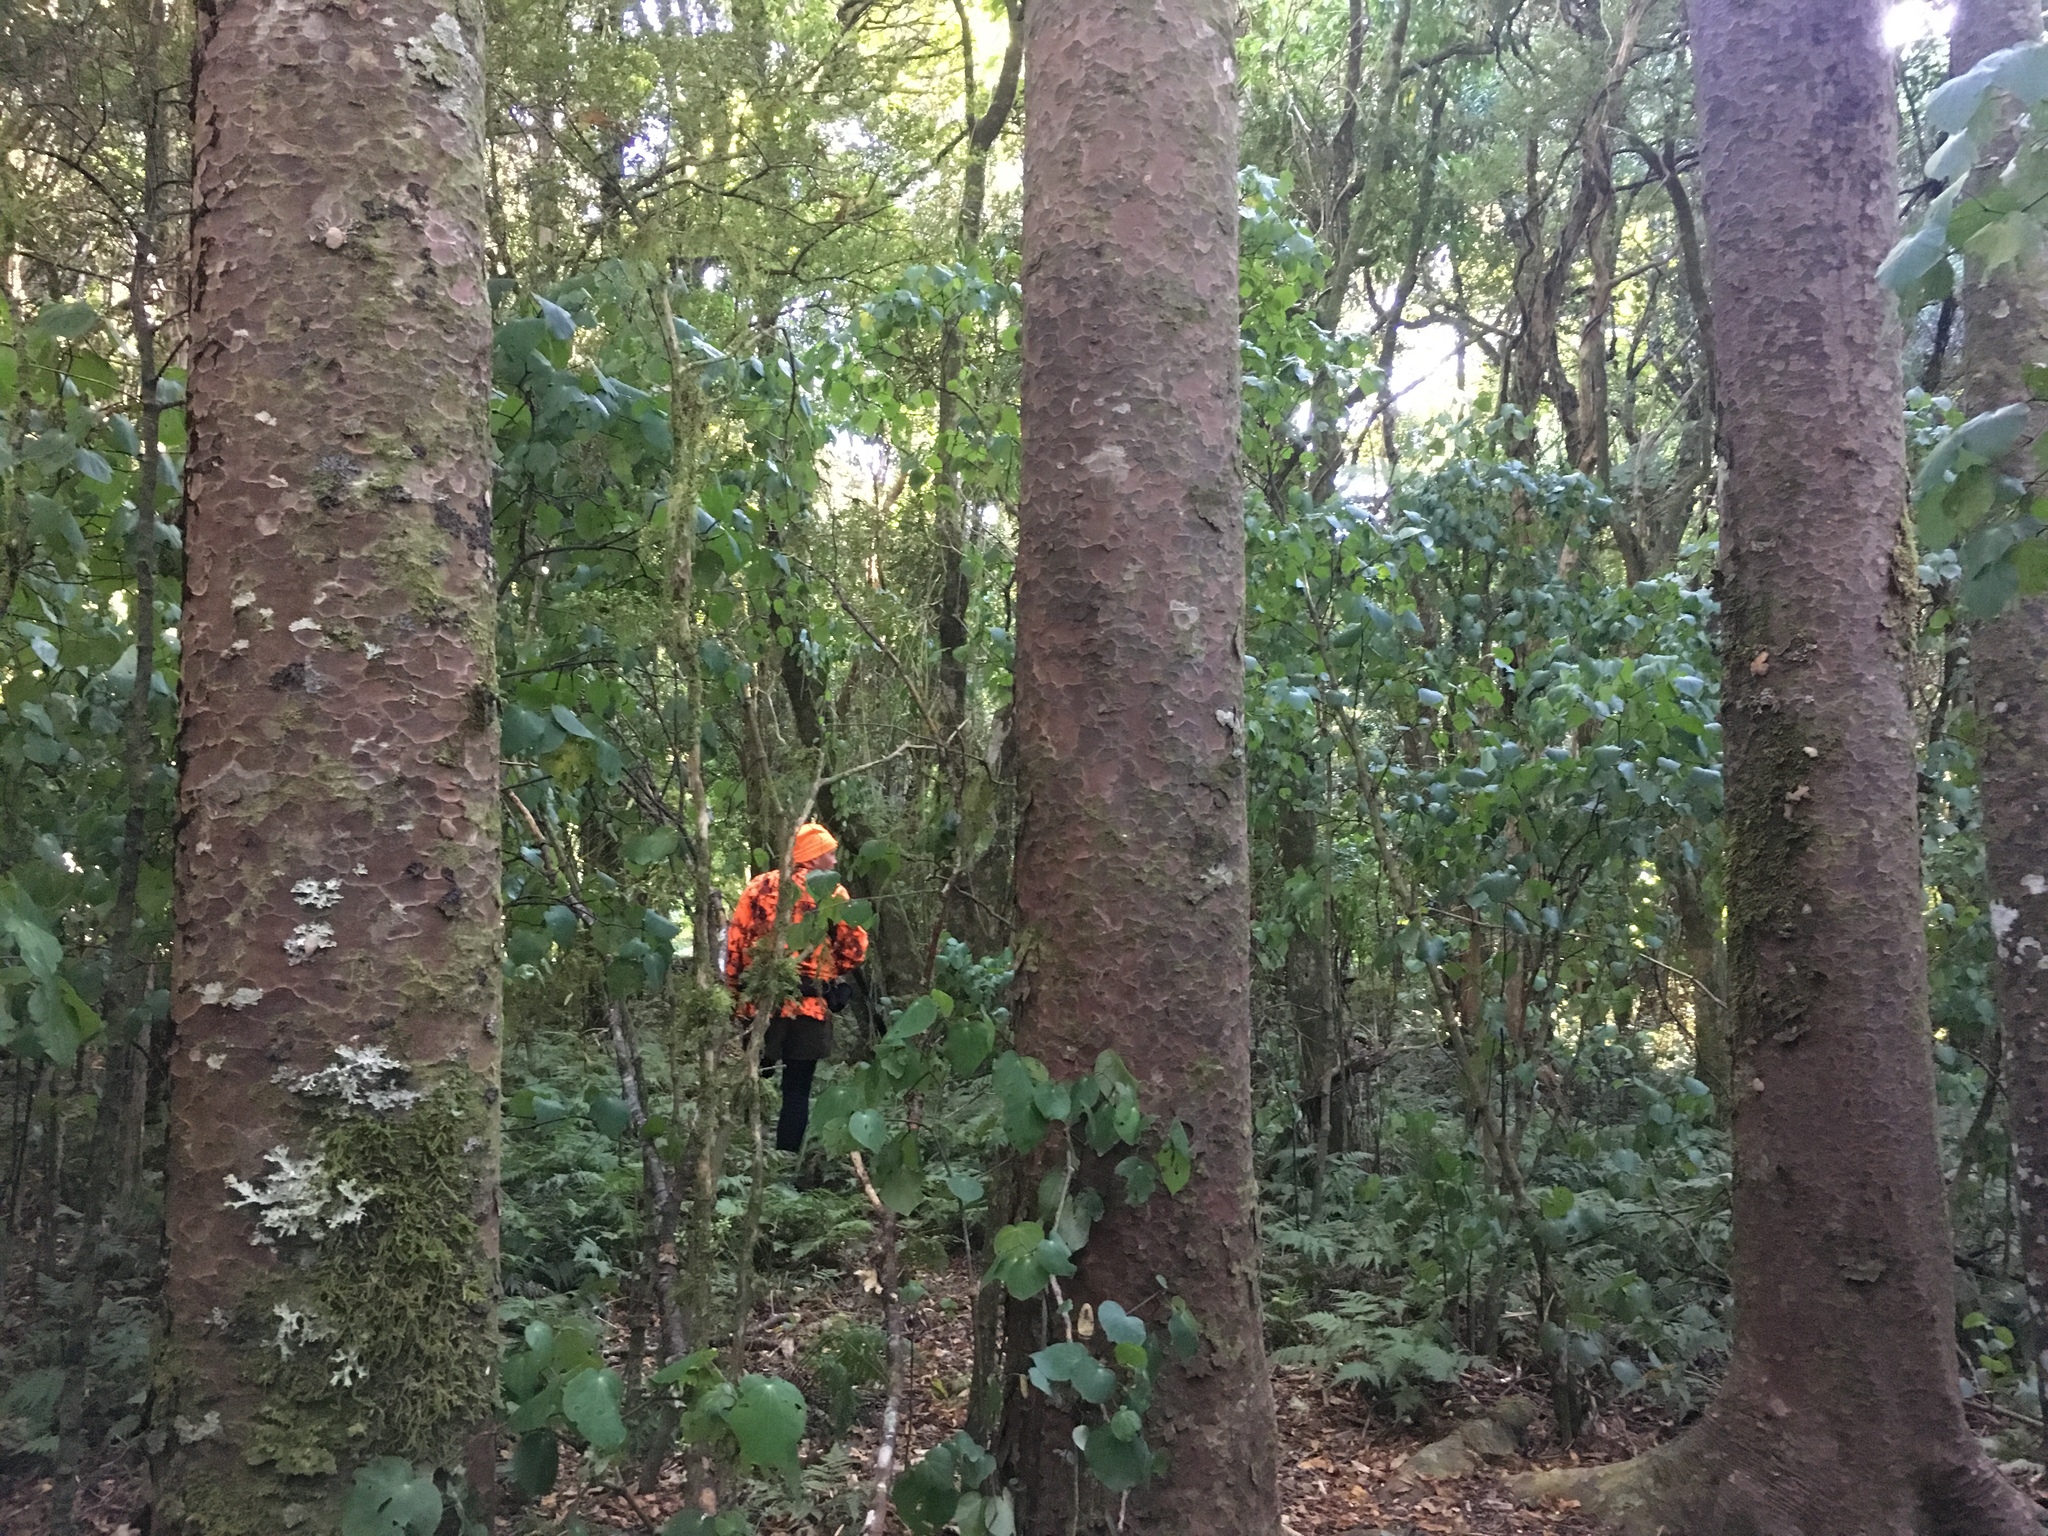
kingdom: Plantae
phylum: Tracheophyta
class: Pinopsida
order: Pinales
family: Podocarpaceae
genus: Prumnopitys
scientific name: Prumnopitys taxifolia
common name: Matai
